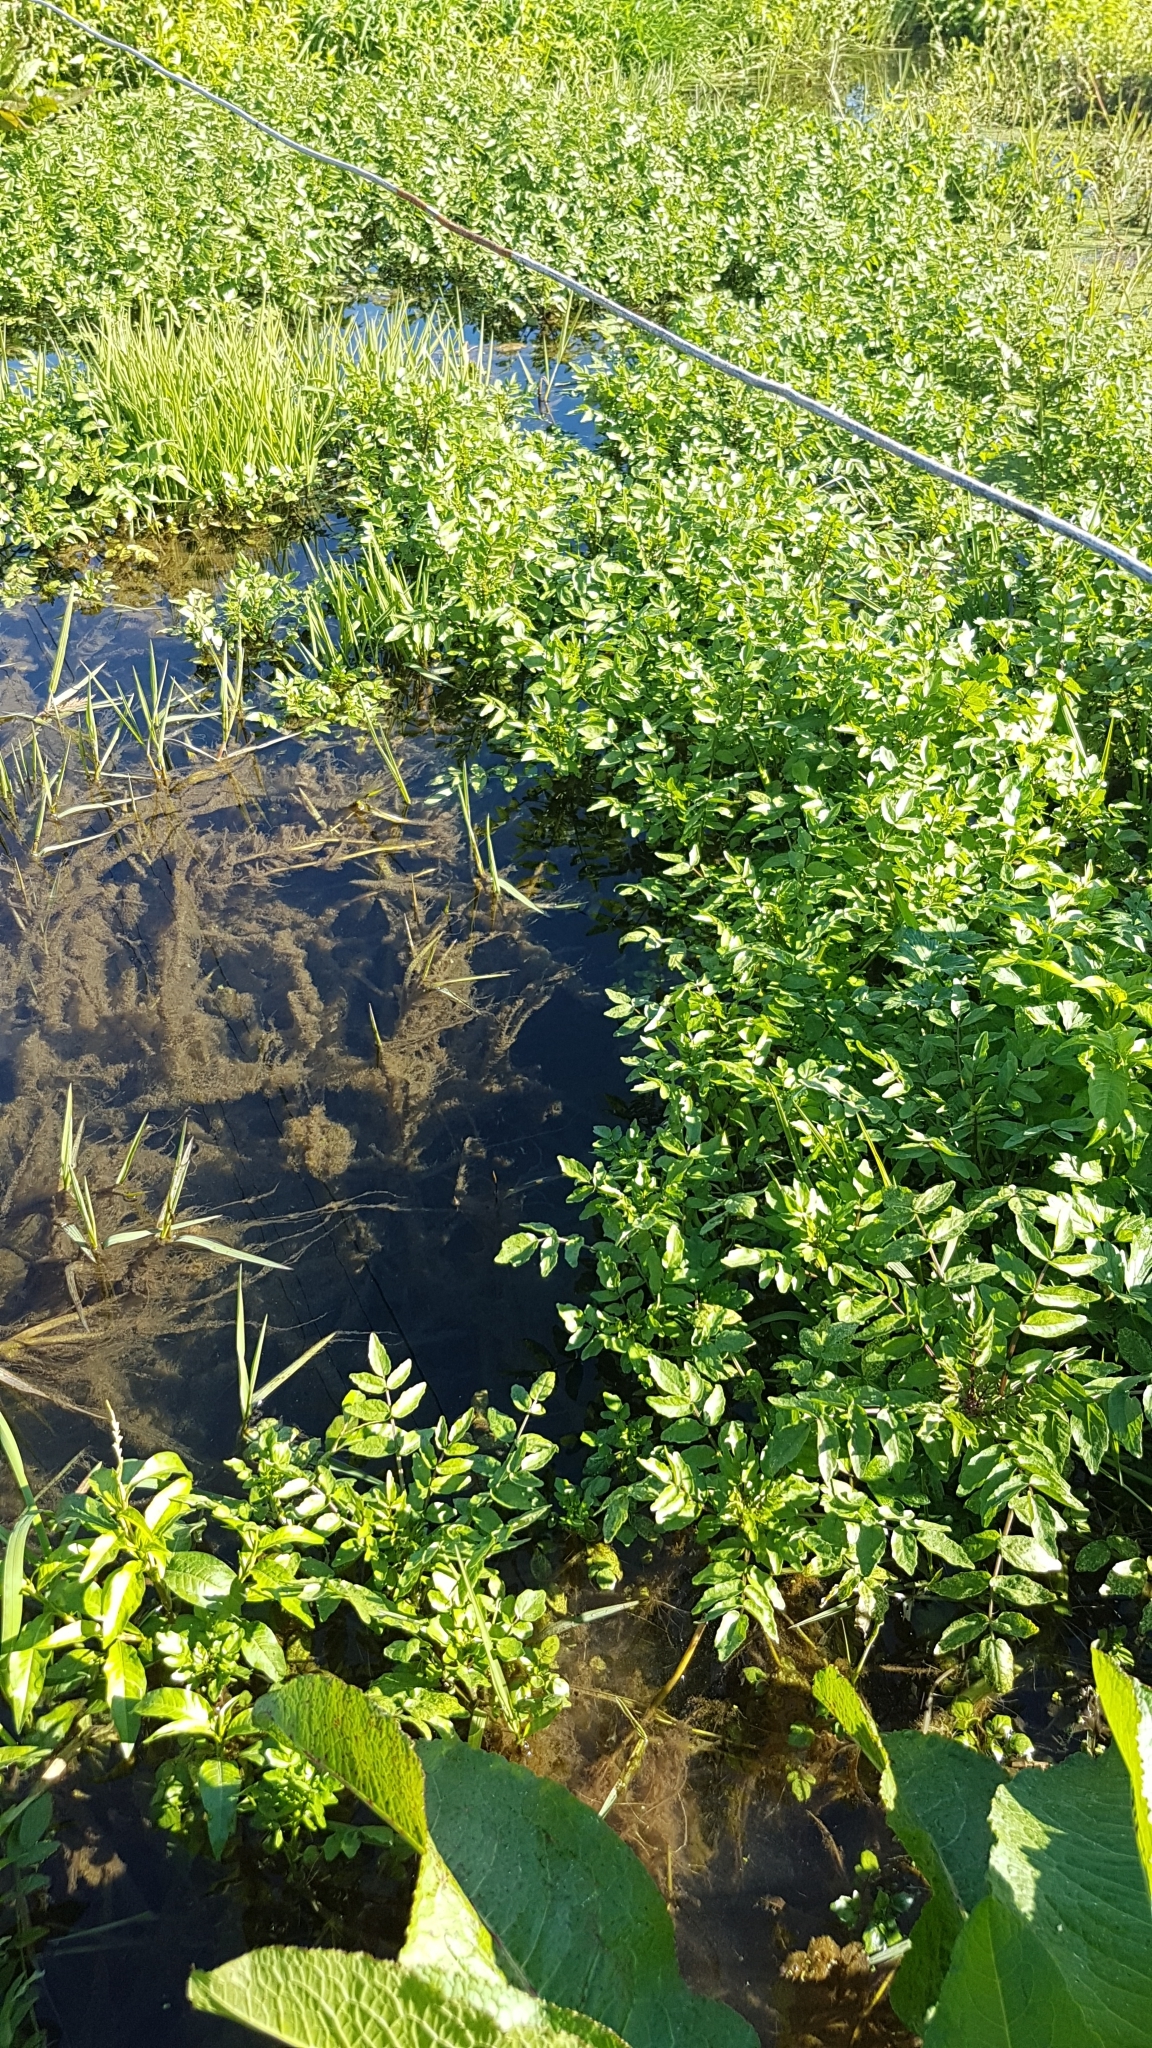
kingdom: Plantae
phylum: Tracheophyta
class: Magnoliopsida
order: Apiales
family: Apiaceae
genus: Helosciadium
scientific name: Helosciadium nodiflorum
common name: Fool's-watercress
